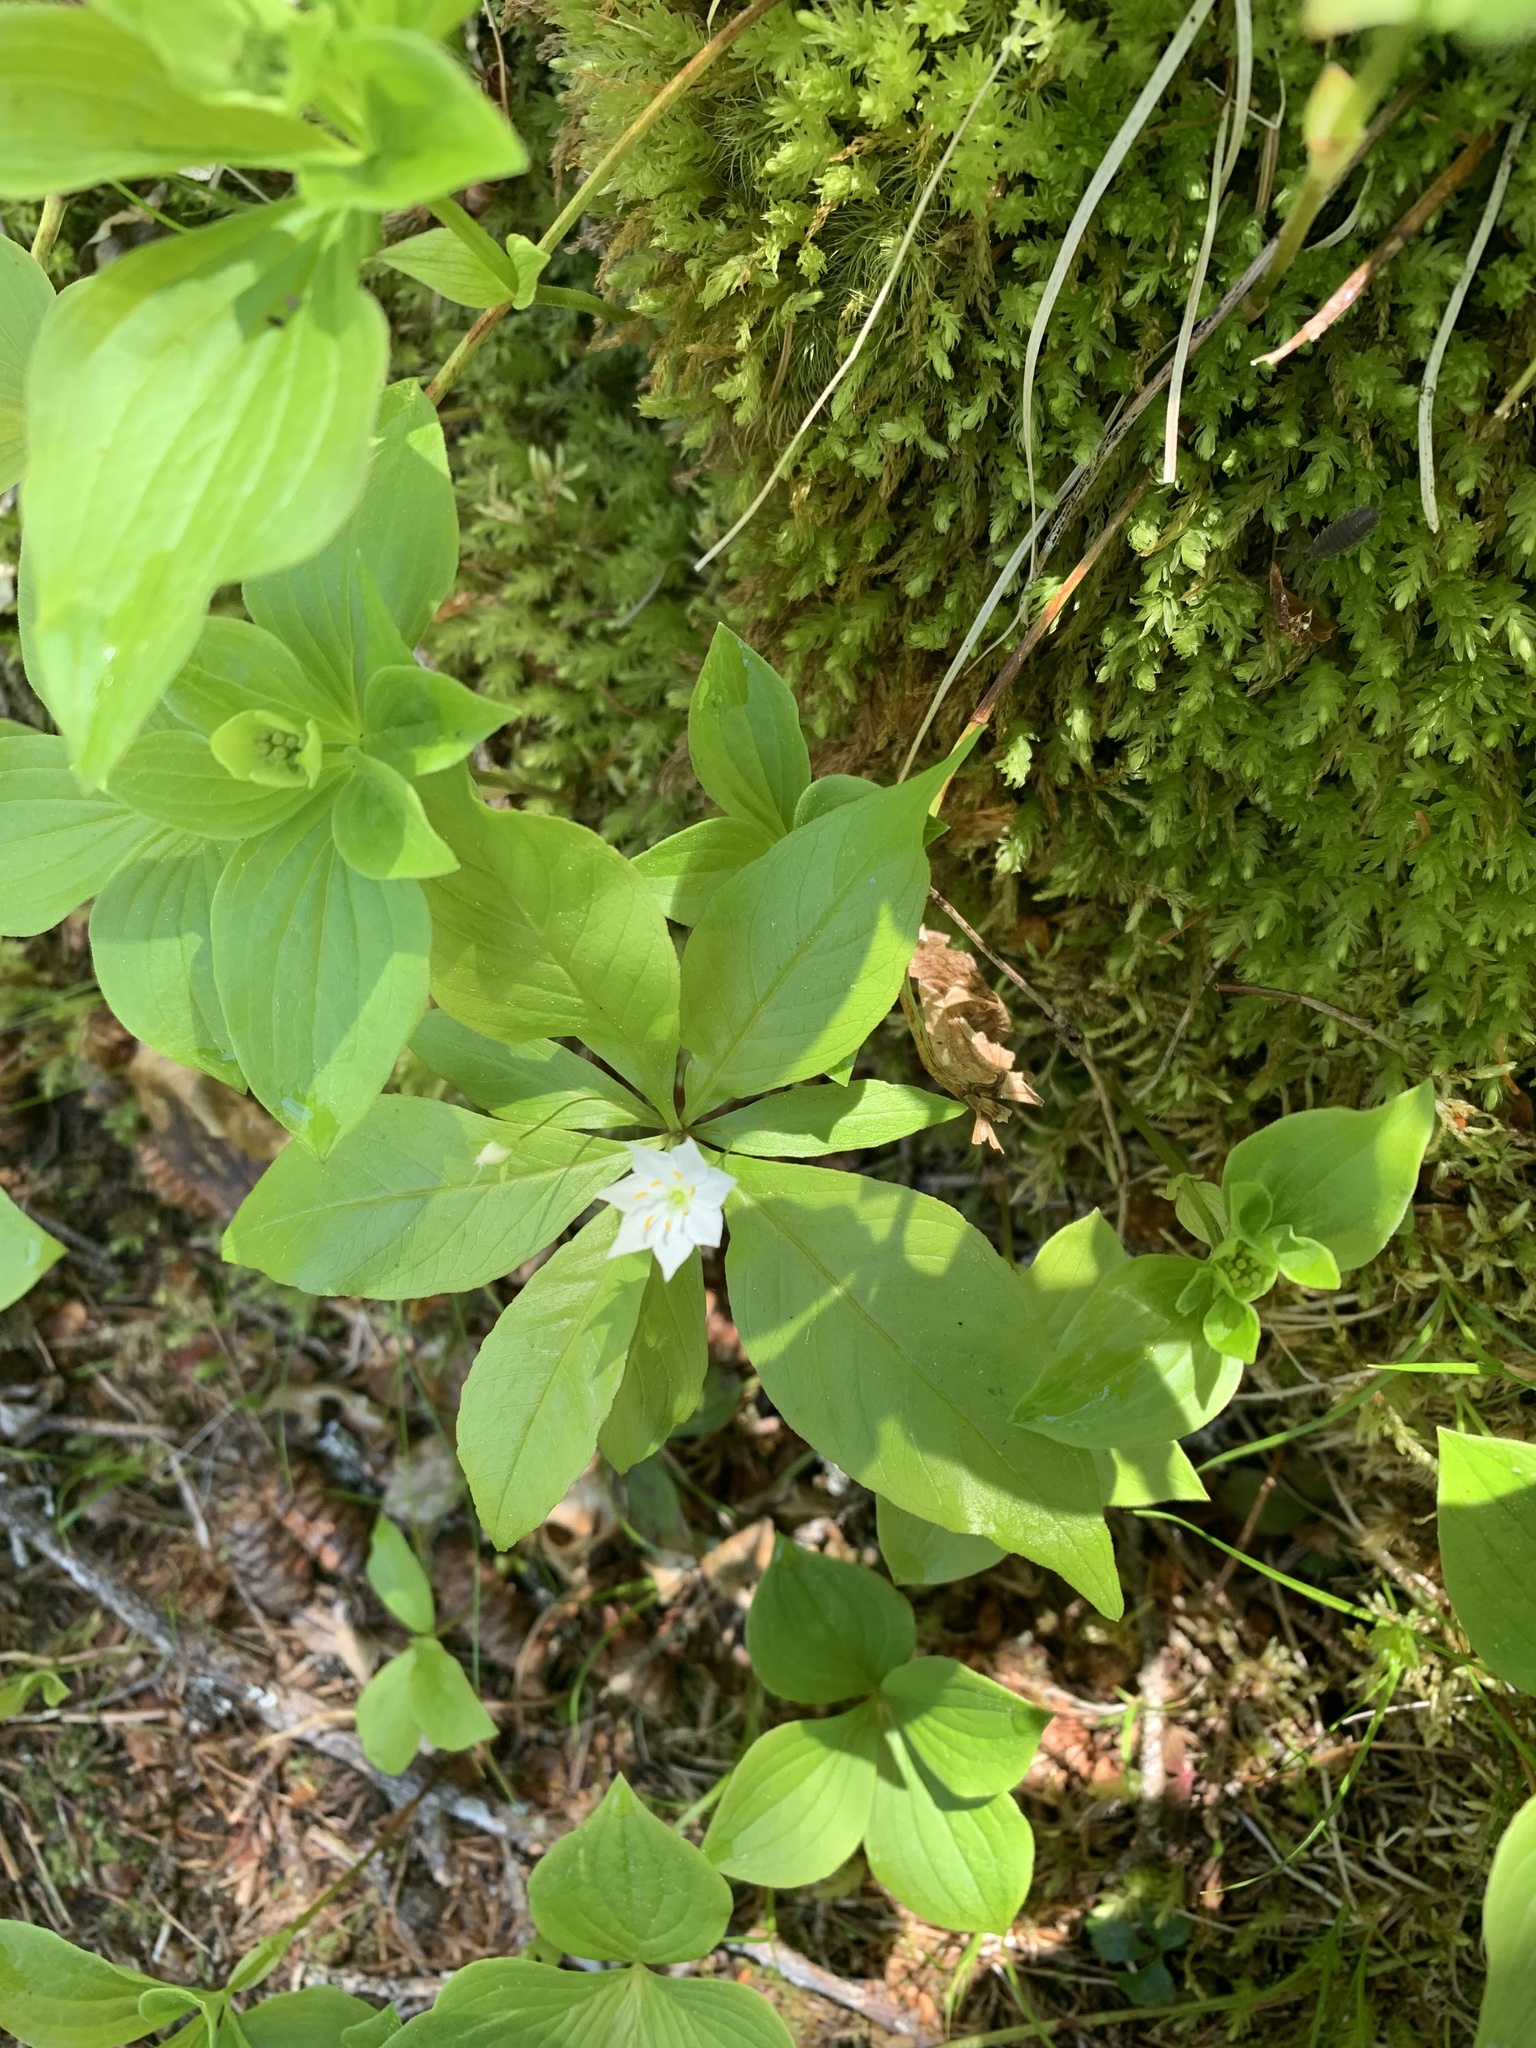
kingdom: Plantae
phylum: Tracheophyta
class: Magnoliopsida
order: Ericales
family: Primulaceae
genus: Lysimachia
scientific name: Lysimachia borealis
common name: American starflower
